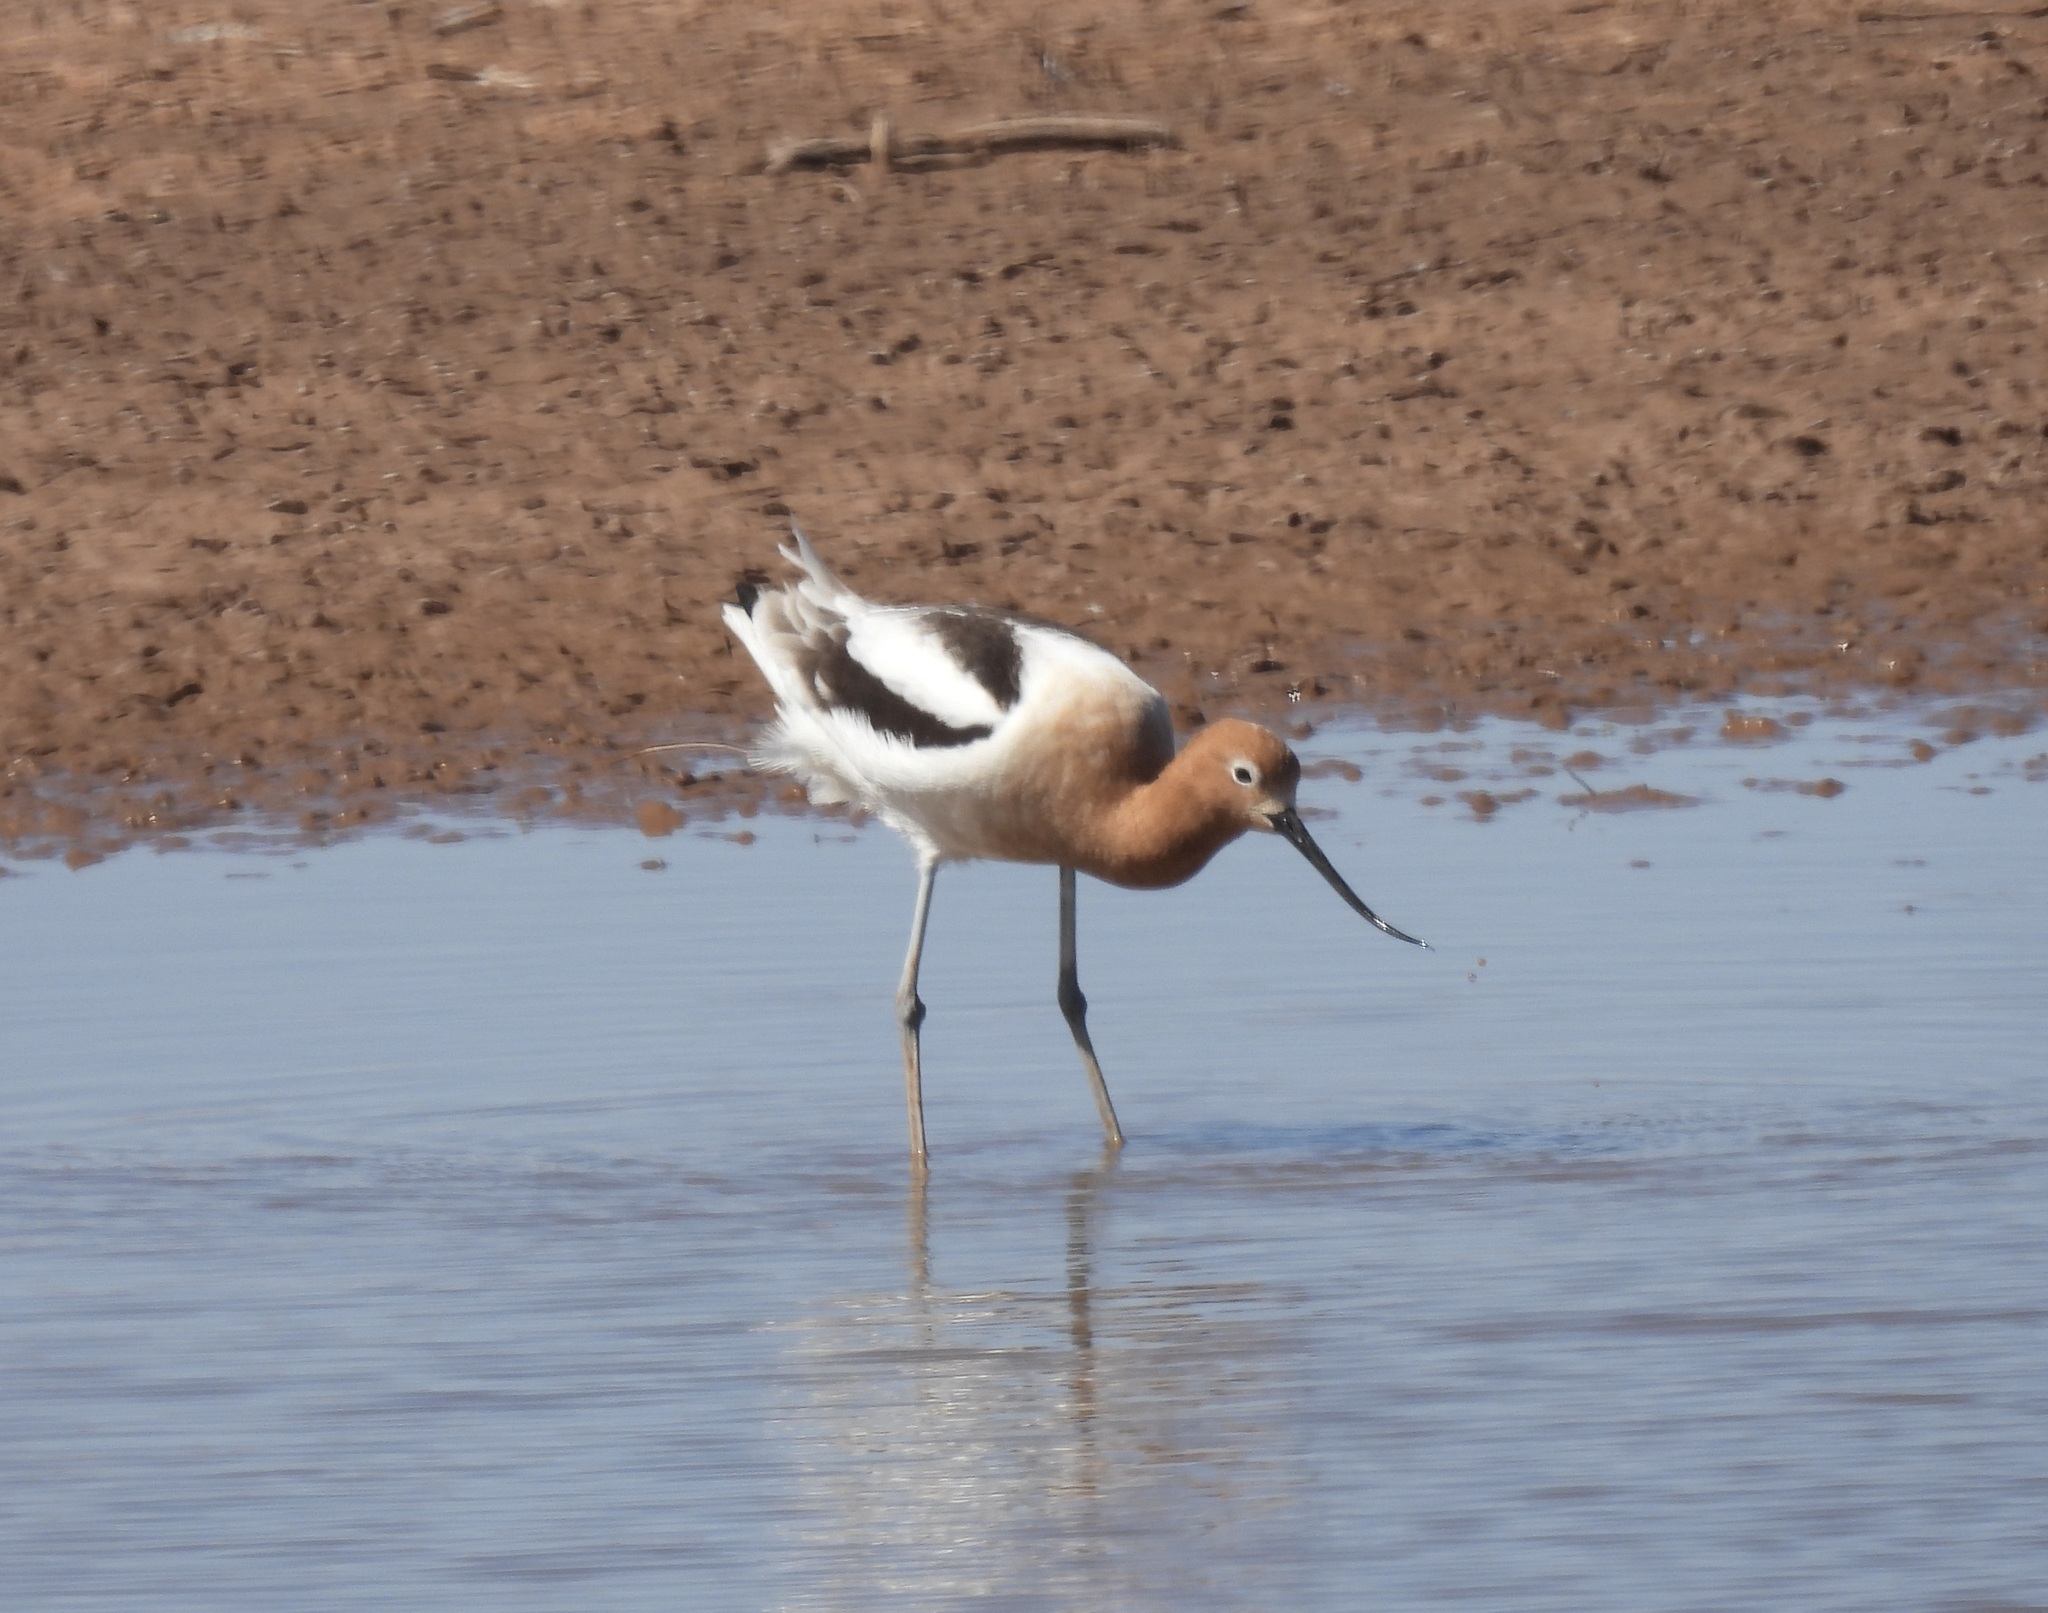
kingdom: Animalia
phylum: Chordata
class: Aves
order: Charadriiformes
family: Recurvirostridae
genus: Recurvirostra
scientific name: Recurvirostra americana
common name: American avocet
